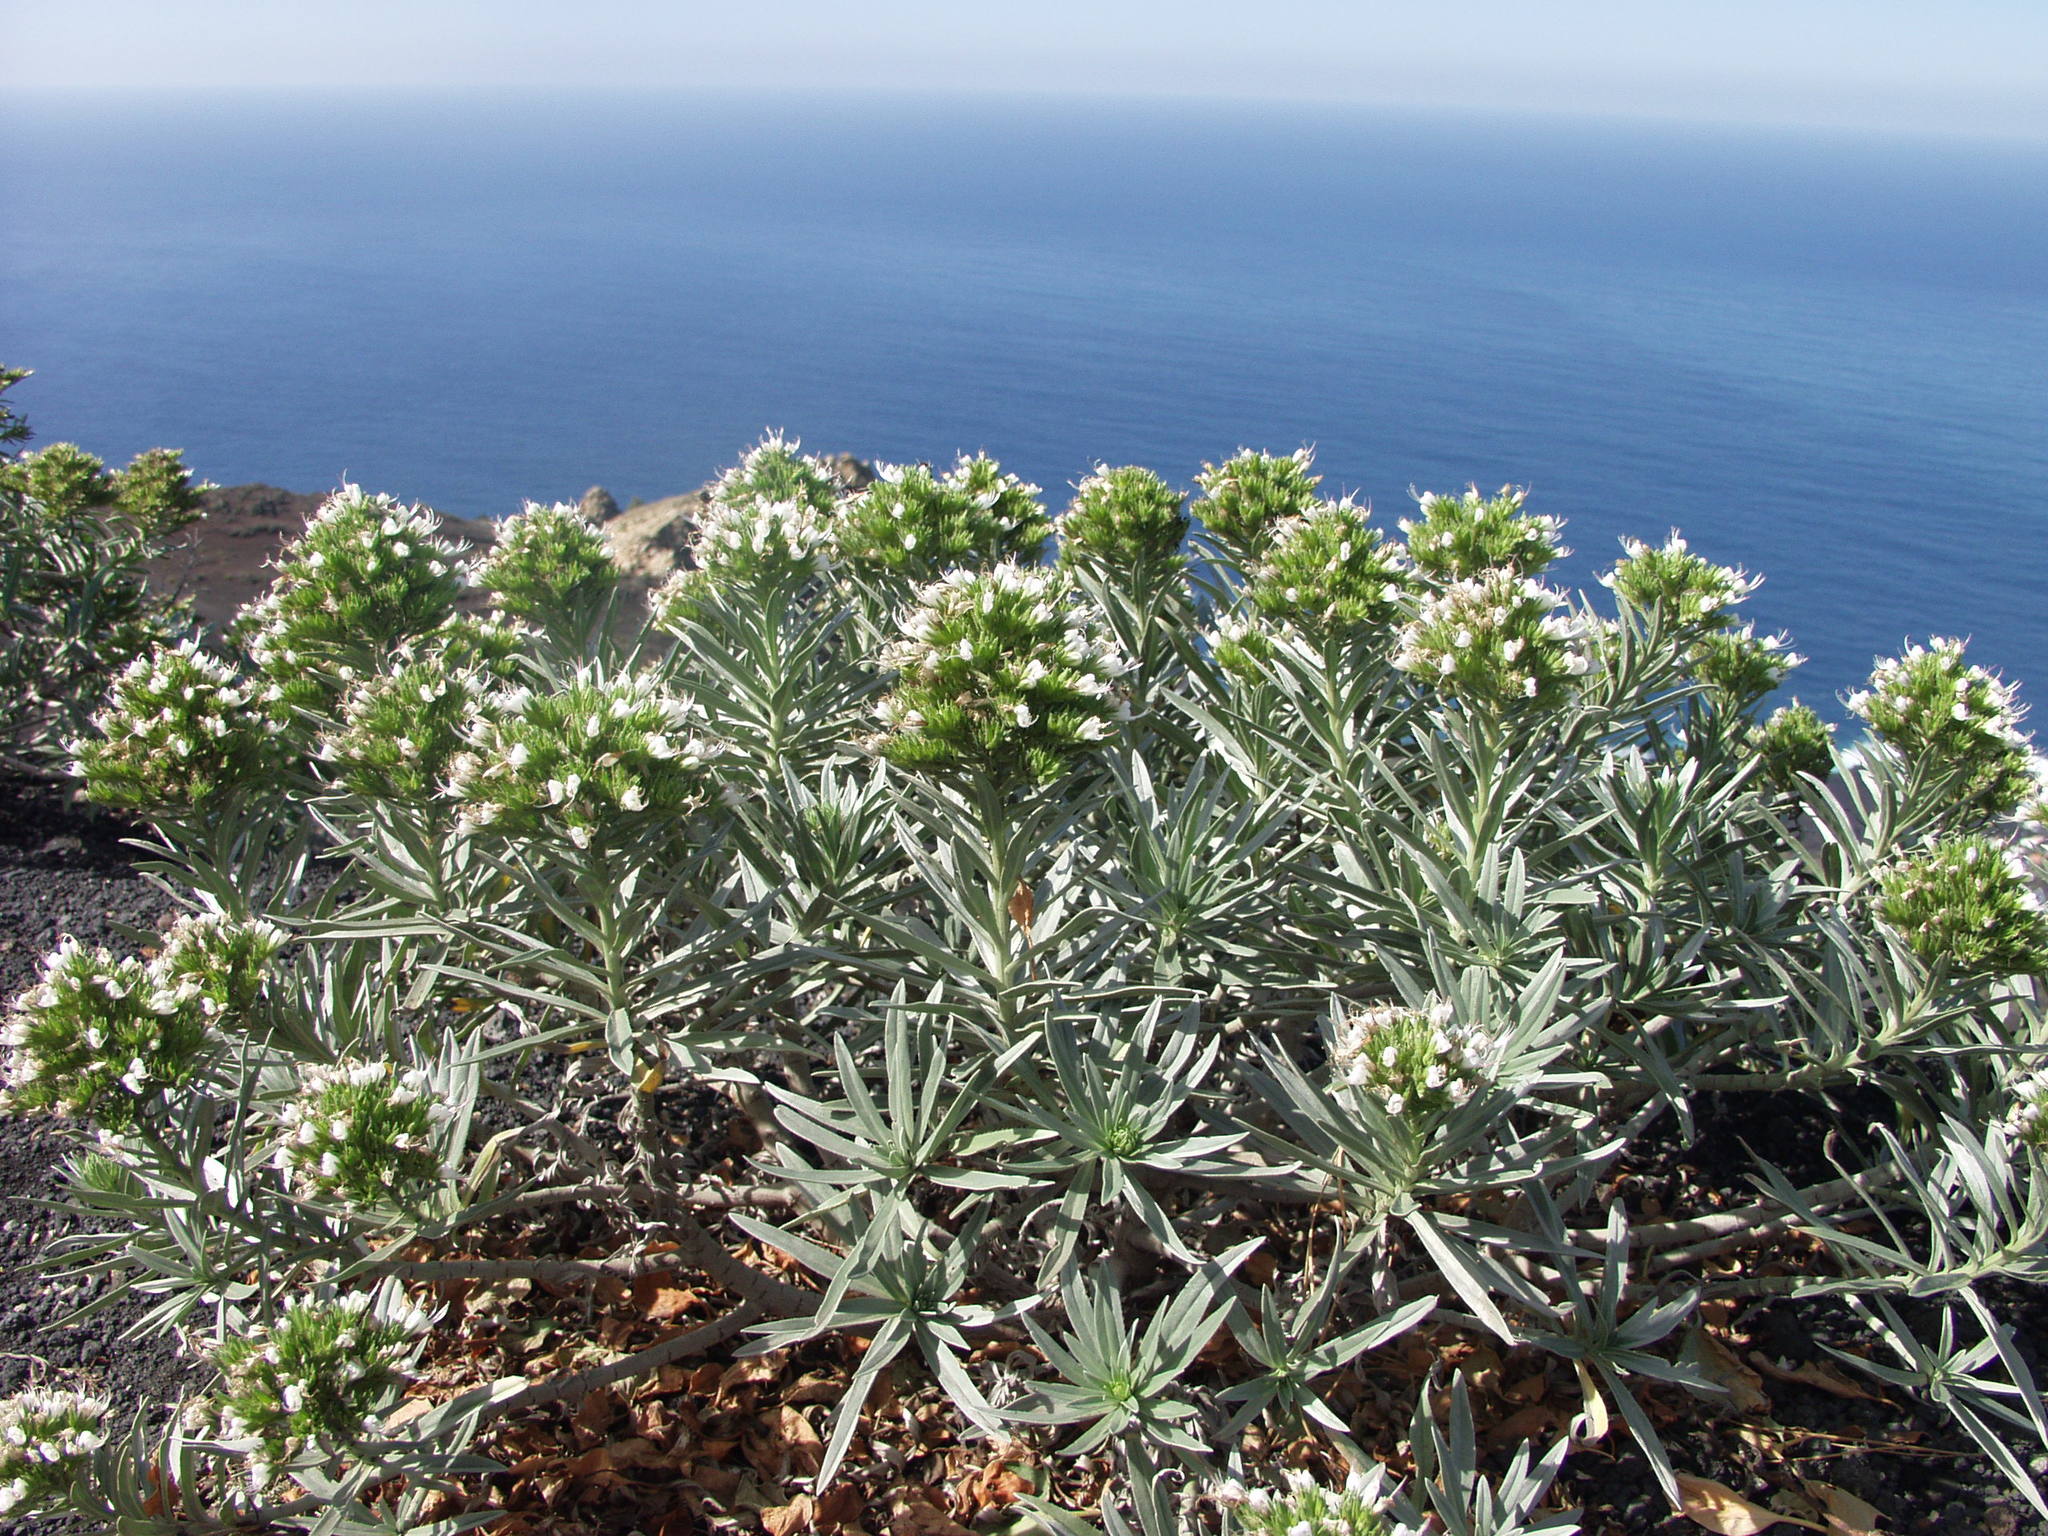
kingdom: Plantae
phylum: Tracheophyta
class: Magnoliopsida
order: Boraginales
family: Boraginaceae
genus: Echium
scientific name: Echium brevirame
